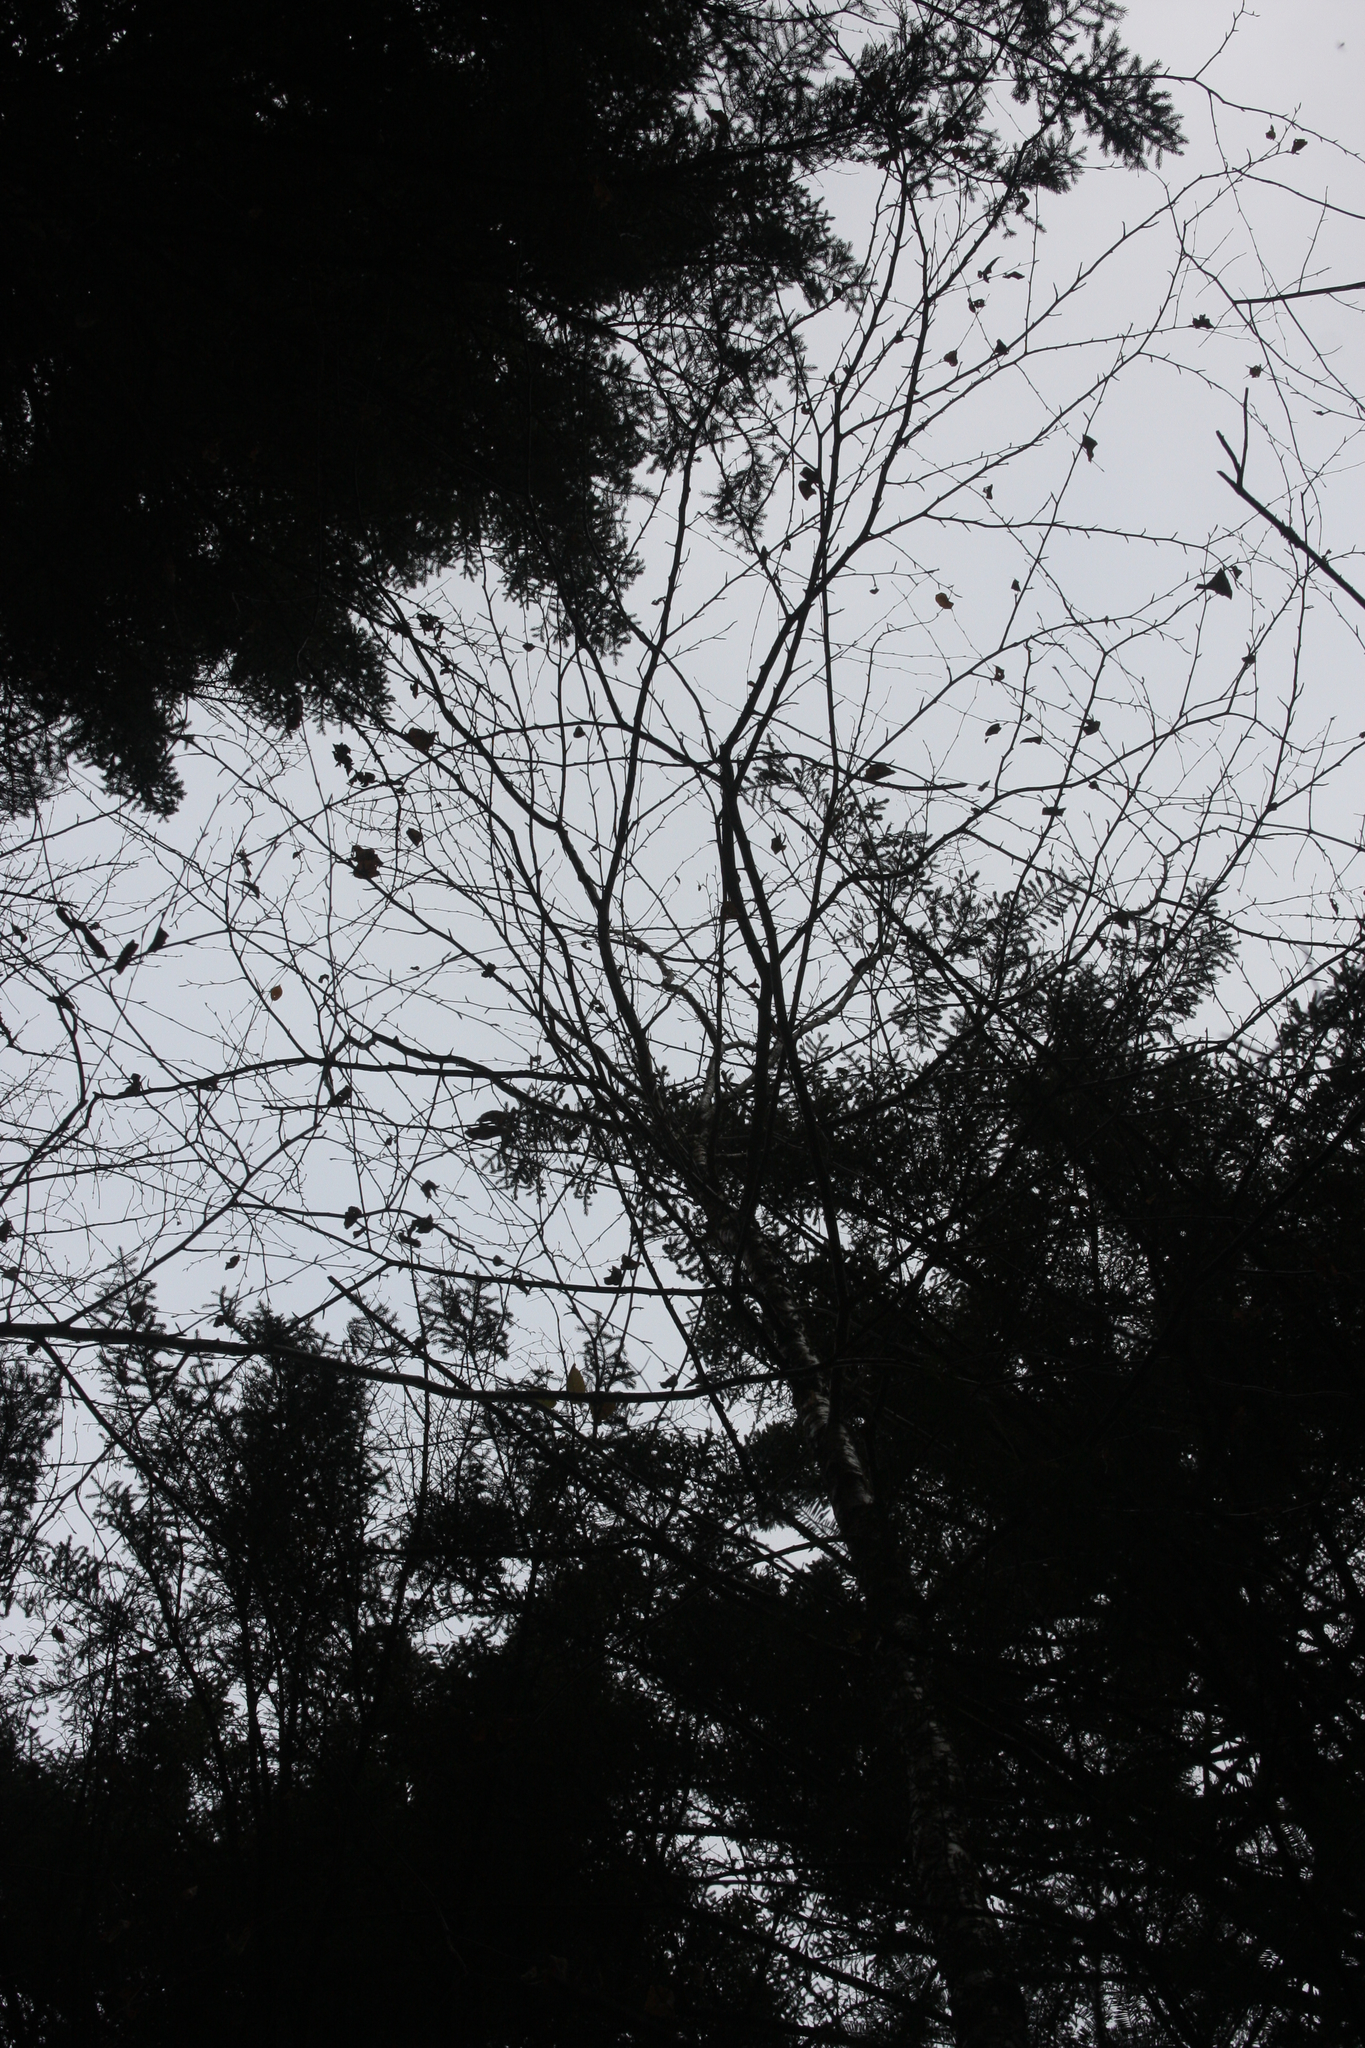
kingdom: Plantae
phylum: Tracheophyta
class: Magnoliopsida
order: Fagales
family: Betulaceae
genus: Betula
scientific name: Betula alleghaniensis
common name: Yellow birch
